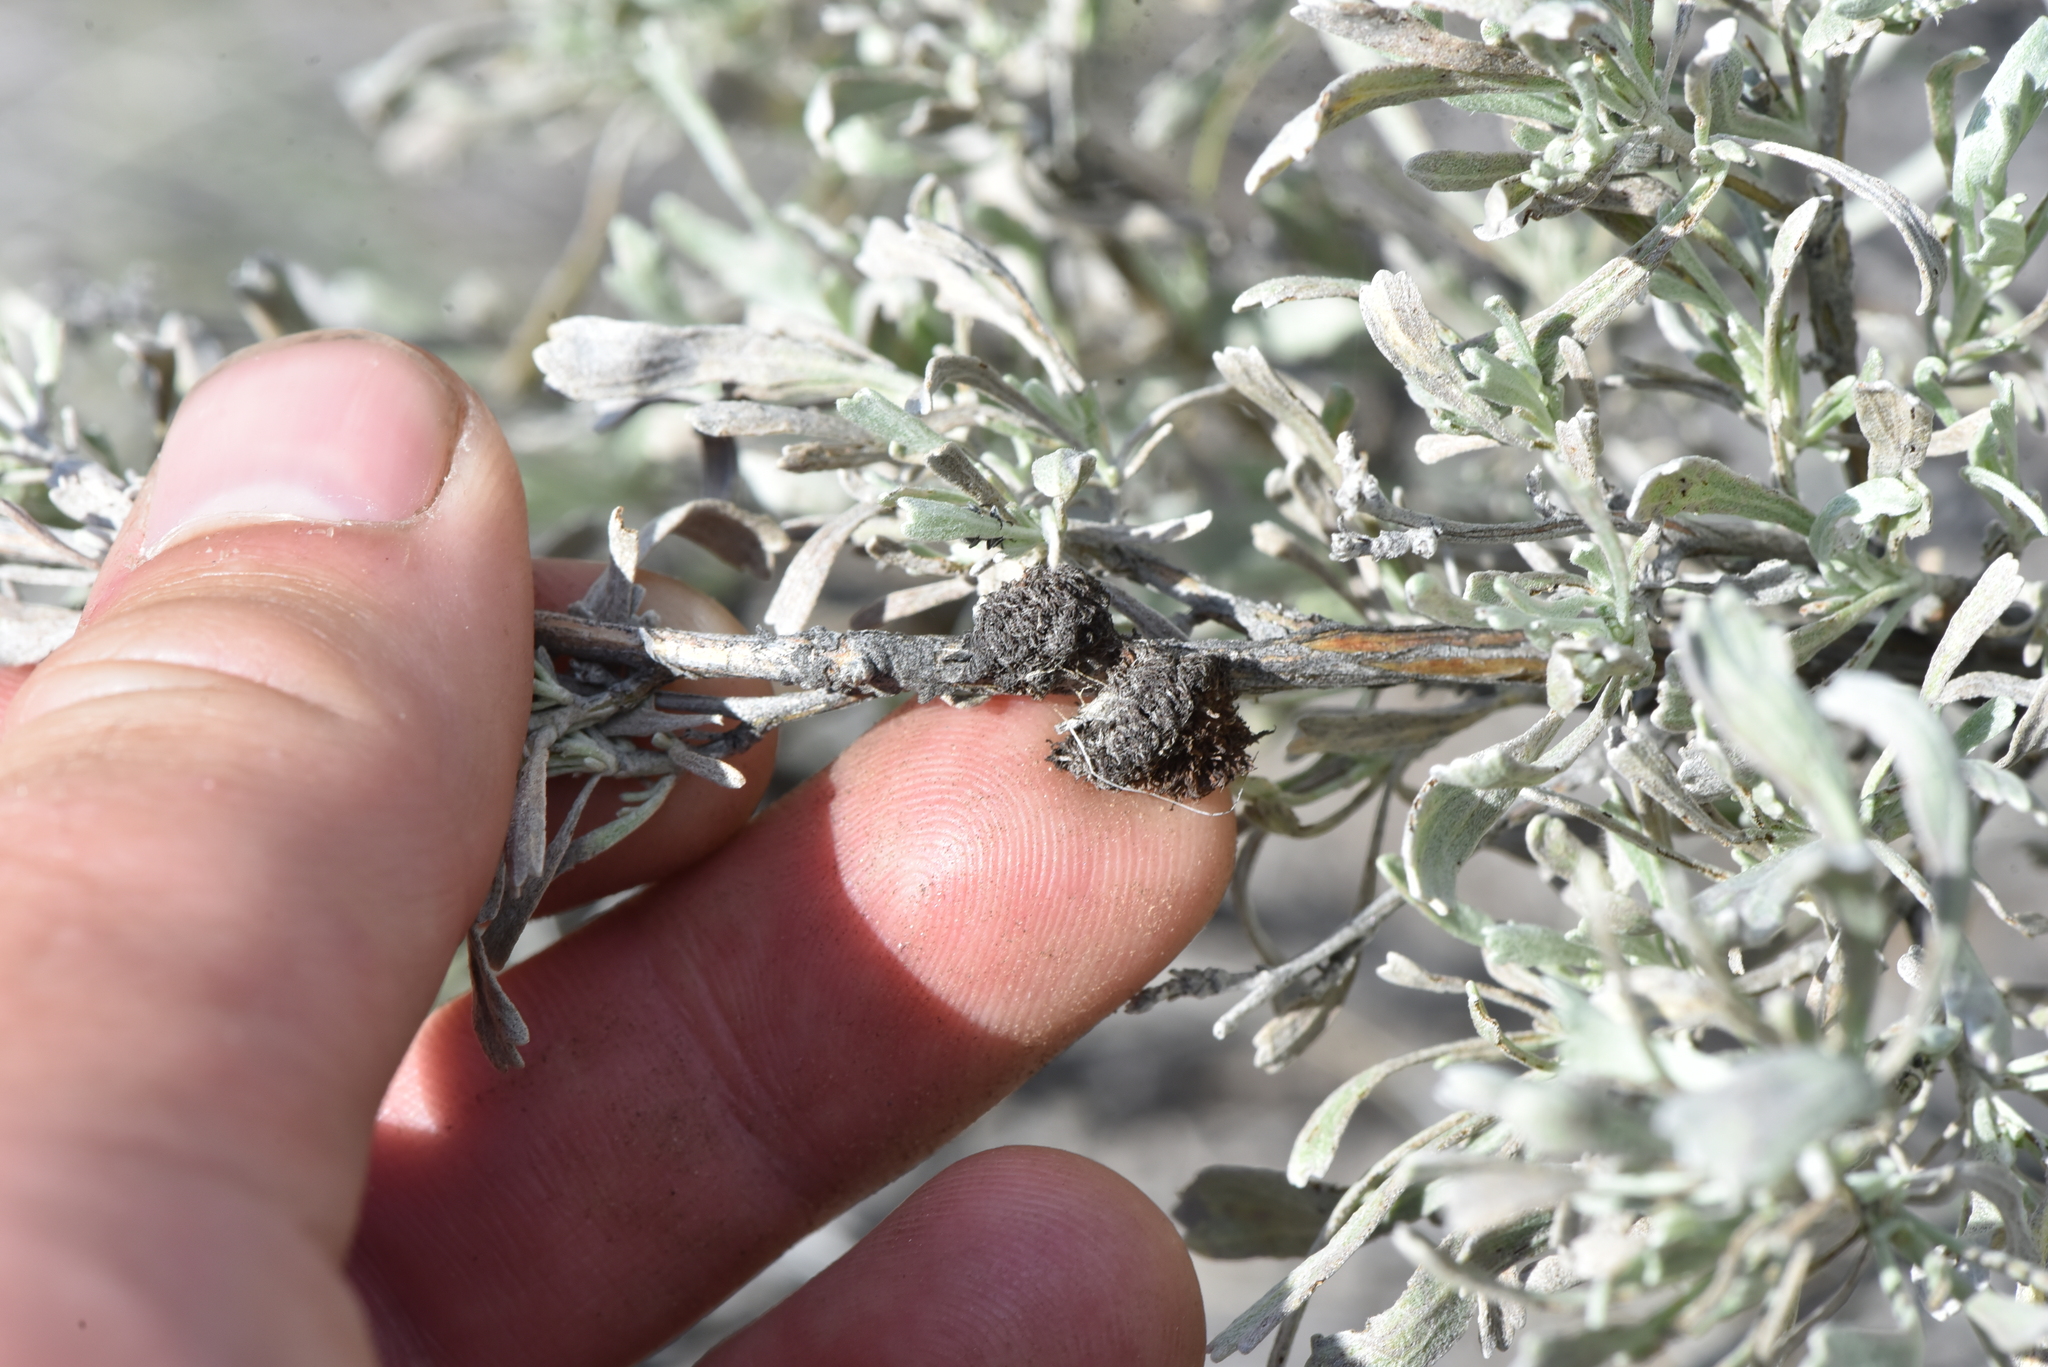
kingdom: Animalia
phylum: Arthropoda
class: Insecta
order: Diptera
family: Cecidomyiidae
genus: Rhopalomyia
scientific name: Rhopalomyia medusa
